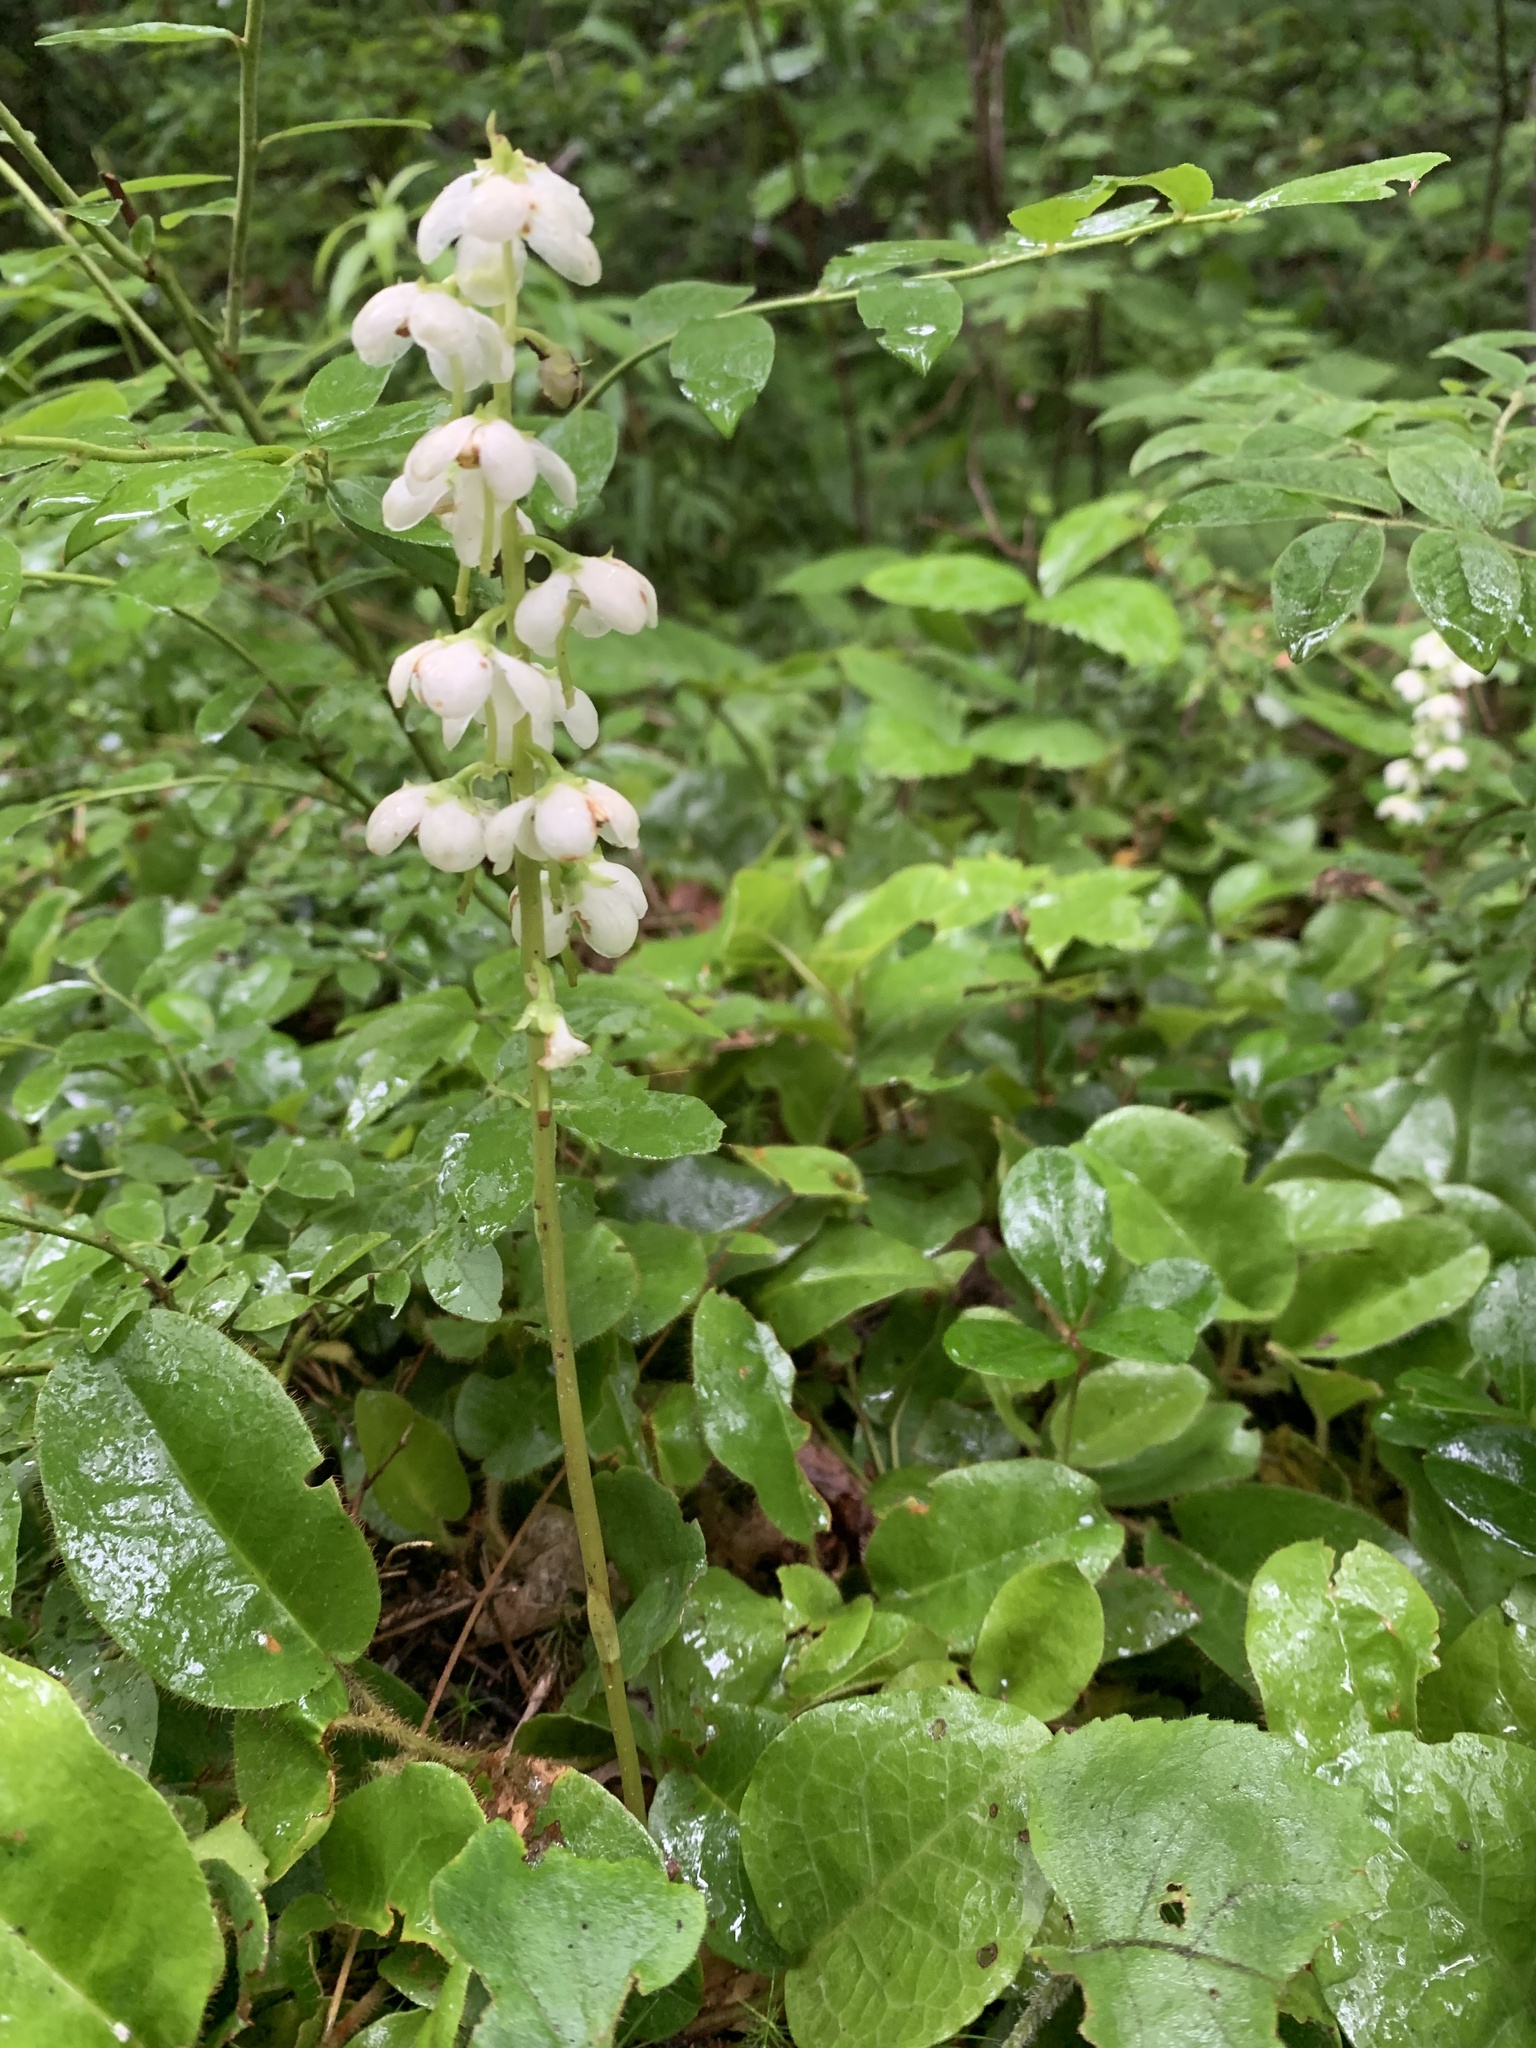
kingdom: Plantae
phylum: Tracheophyta
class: Magnoliopsida
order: Ericales
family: Ericaceae
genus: Pyrola
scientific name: Pyrola americana
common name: American wintergreen
